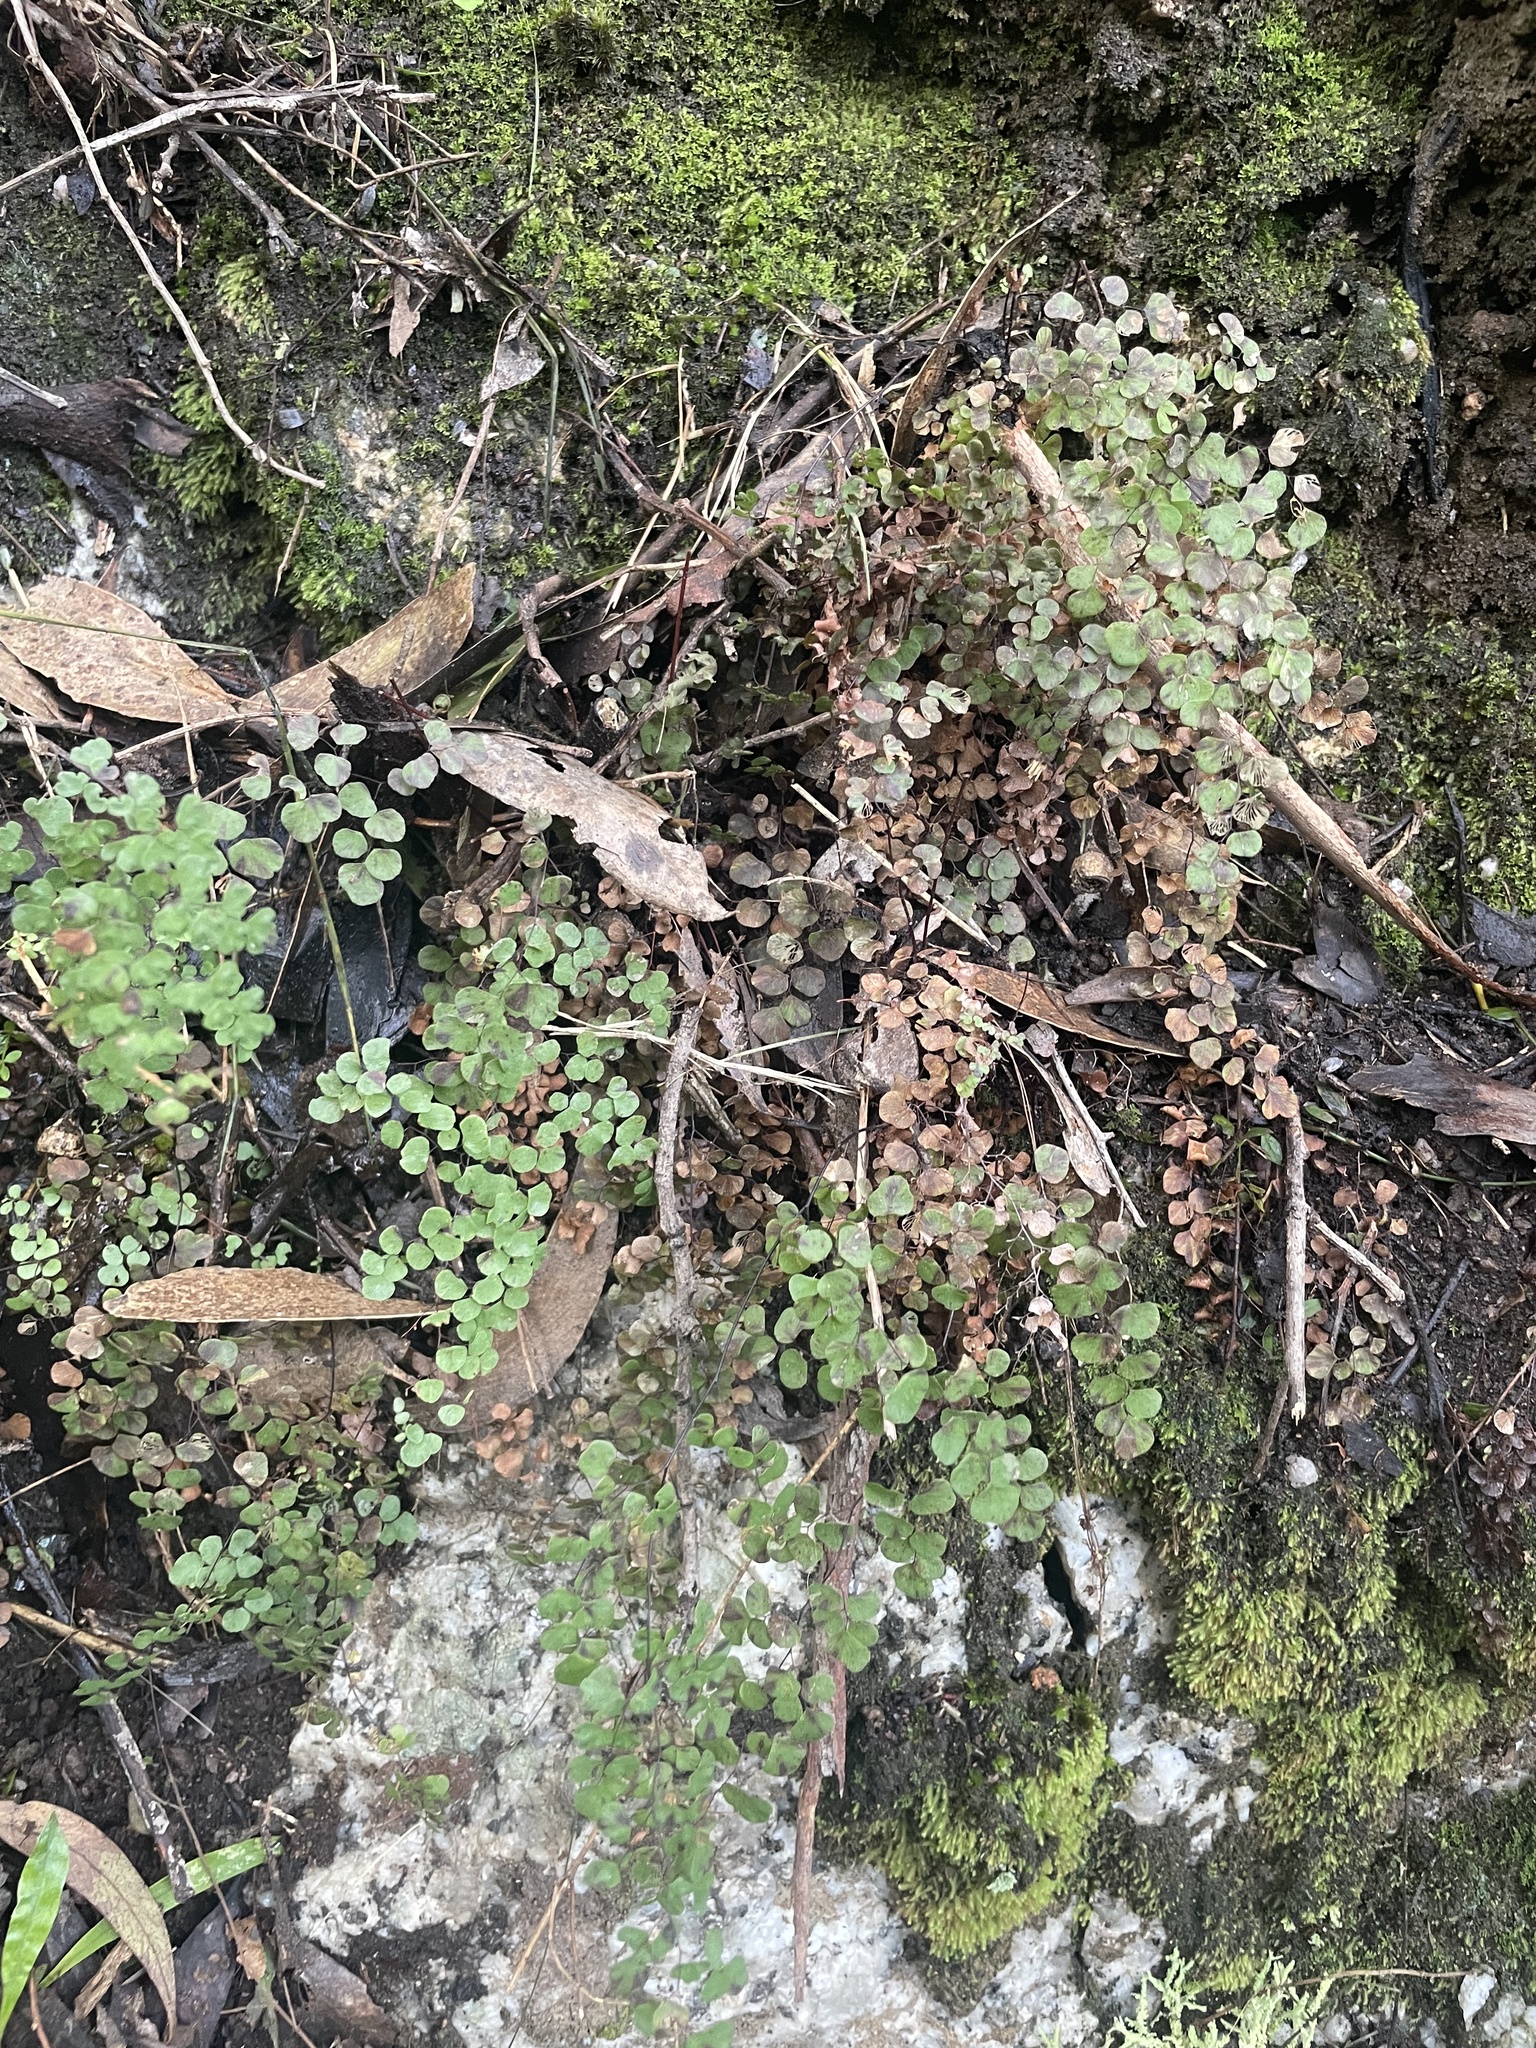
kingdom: Plantae
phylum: Tracheophyta
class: Polypodiopsida
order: Polypodiales
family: Pteridaceae
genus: Adiantum
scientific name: Adiantum aethiopicum
